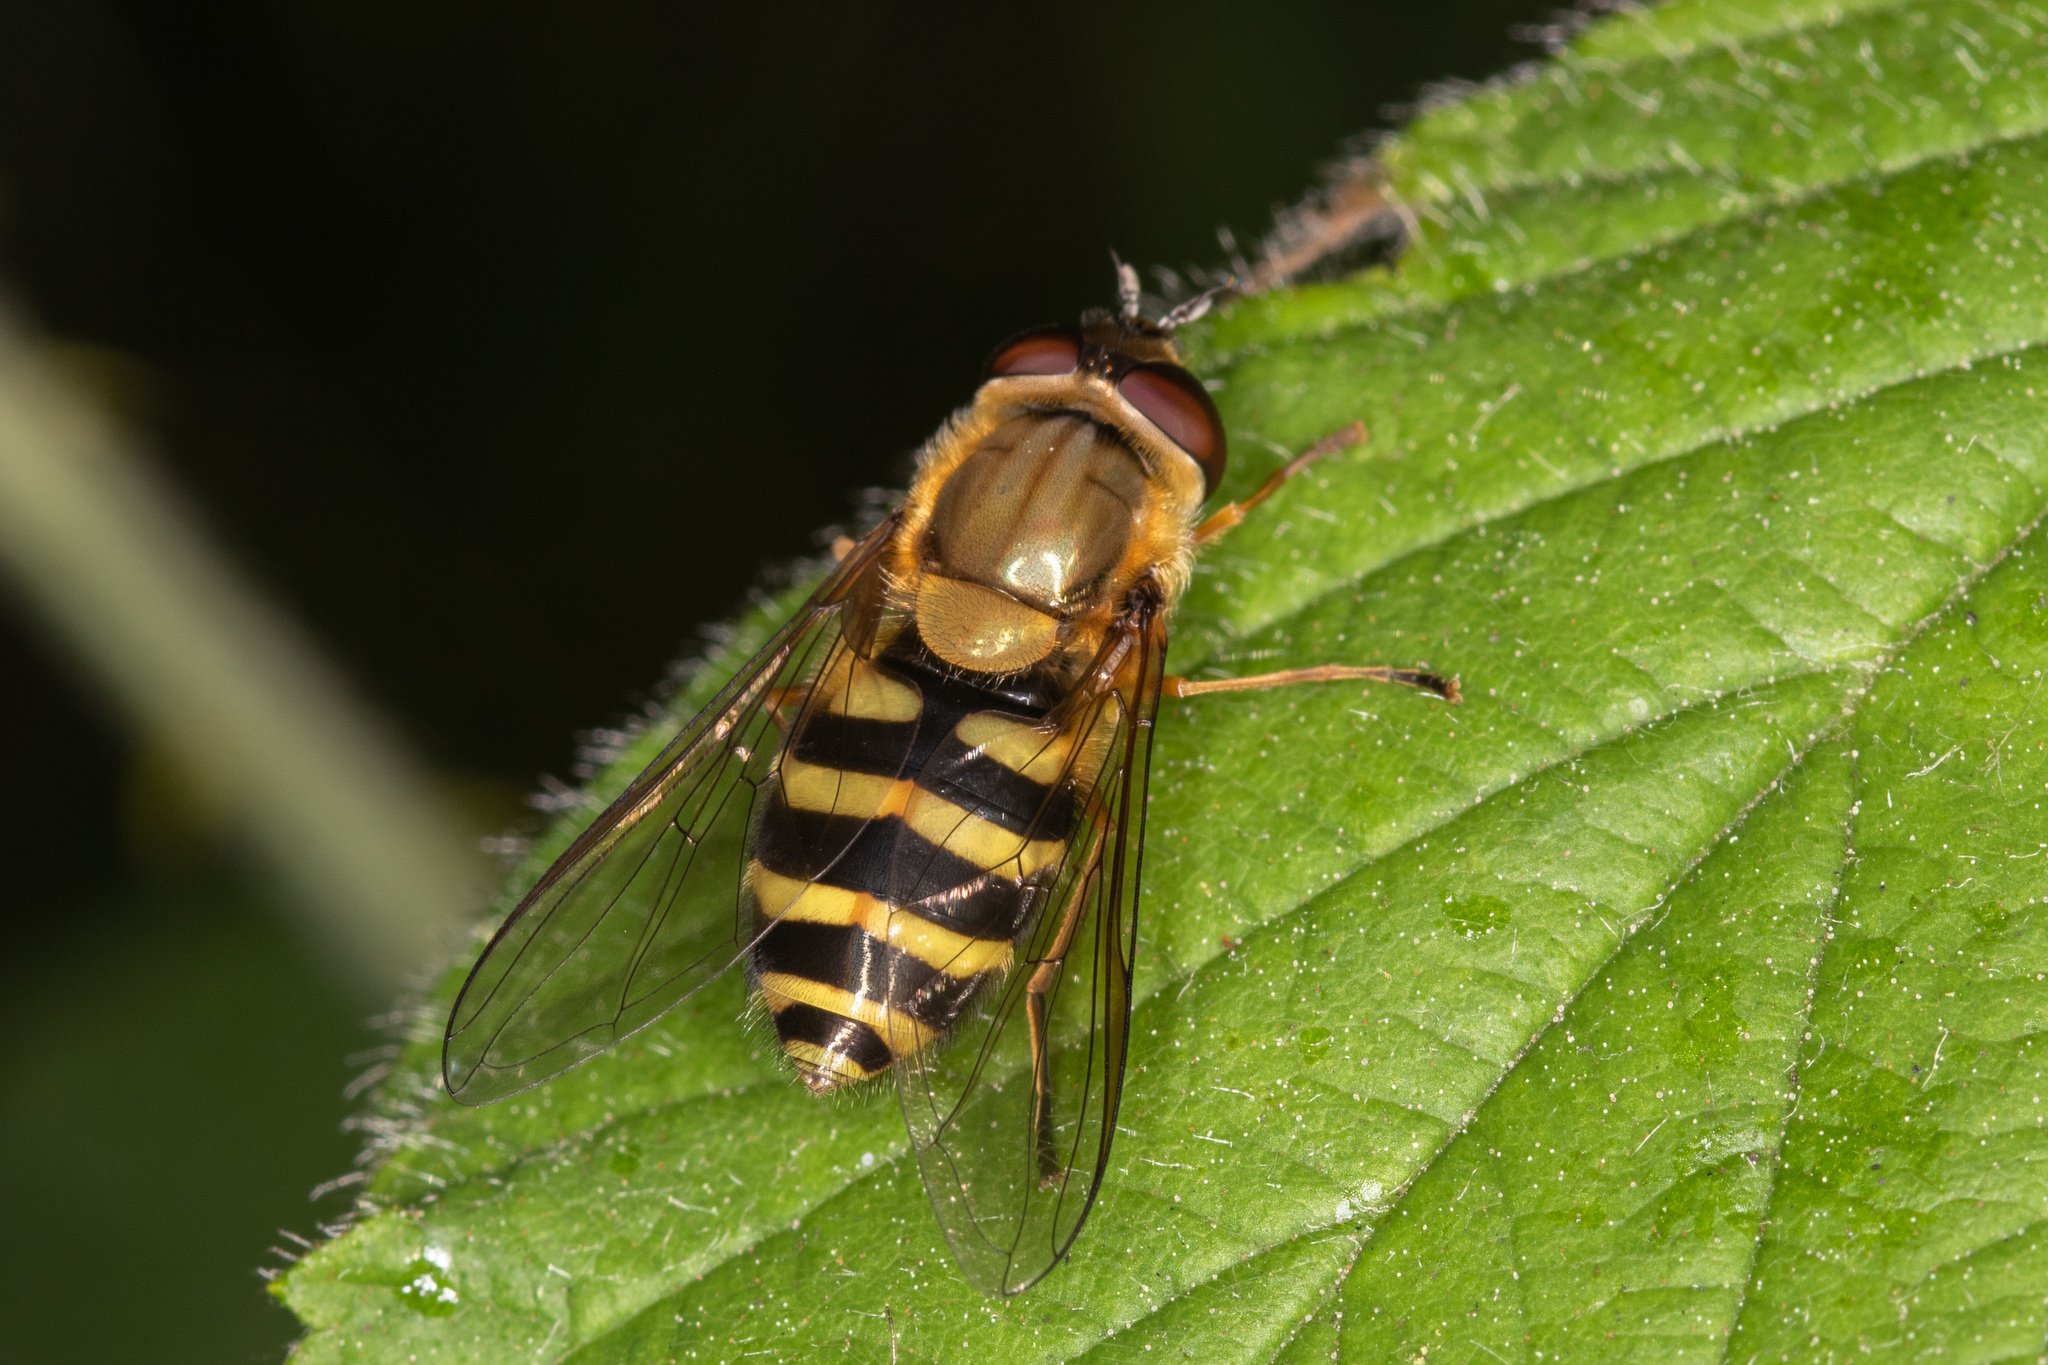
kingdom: Animalia
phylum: Arthropoda
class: Insecta
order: Diptera
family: Syrphidae
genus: Syrphus
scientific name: Syrphus
